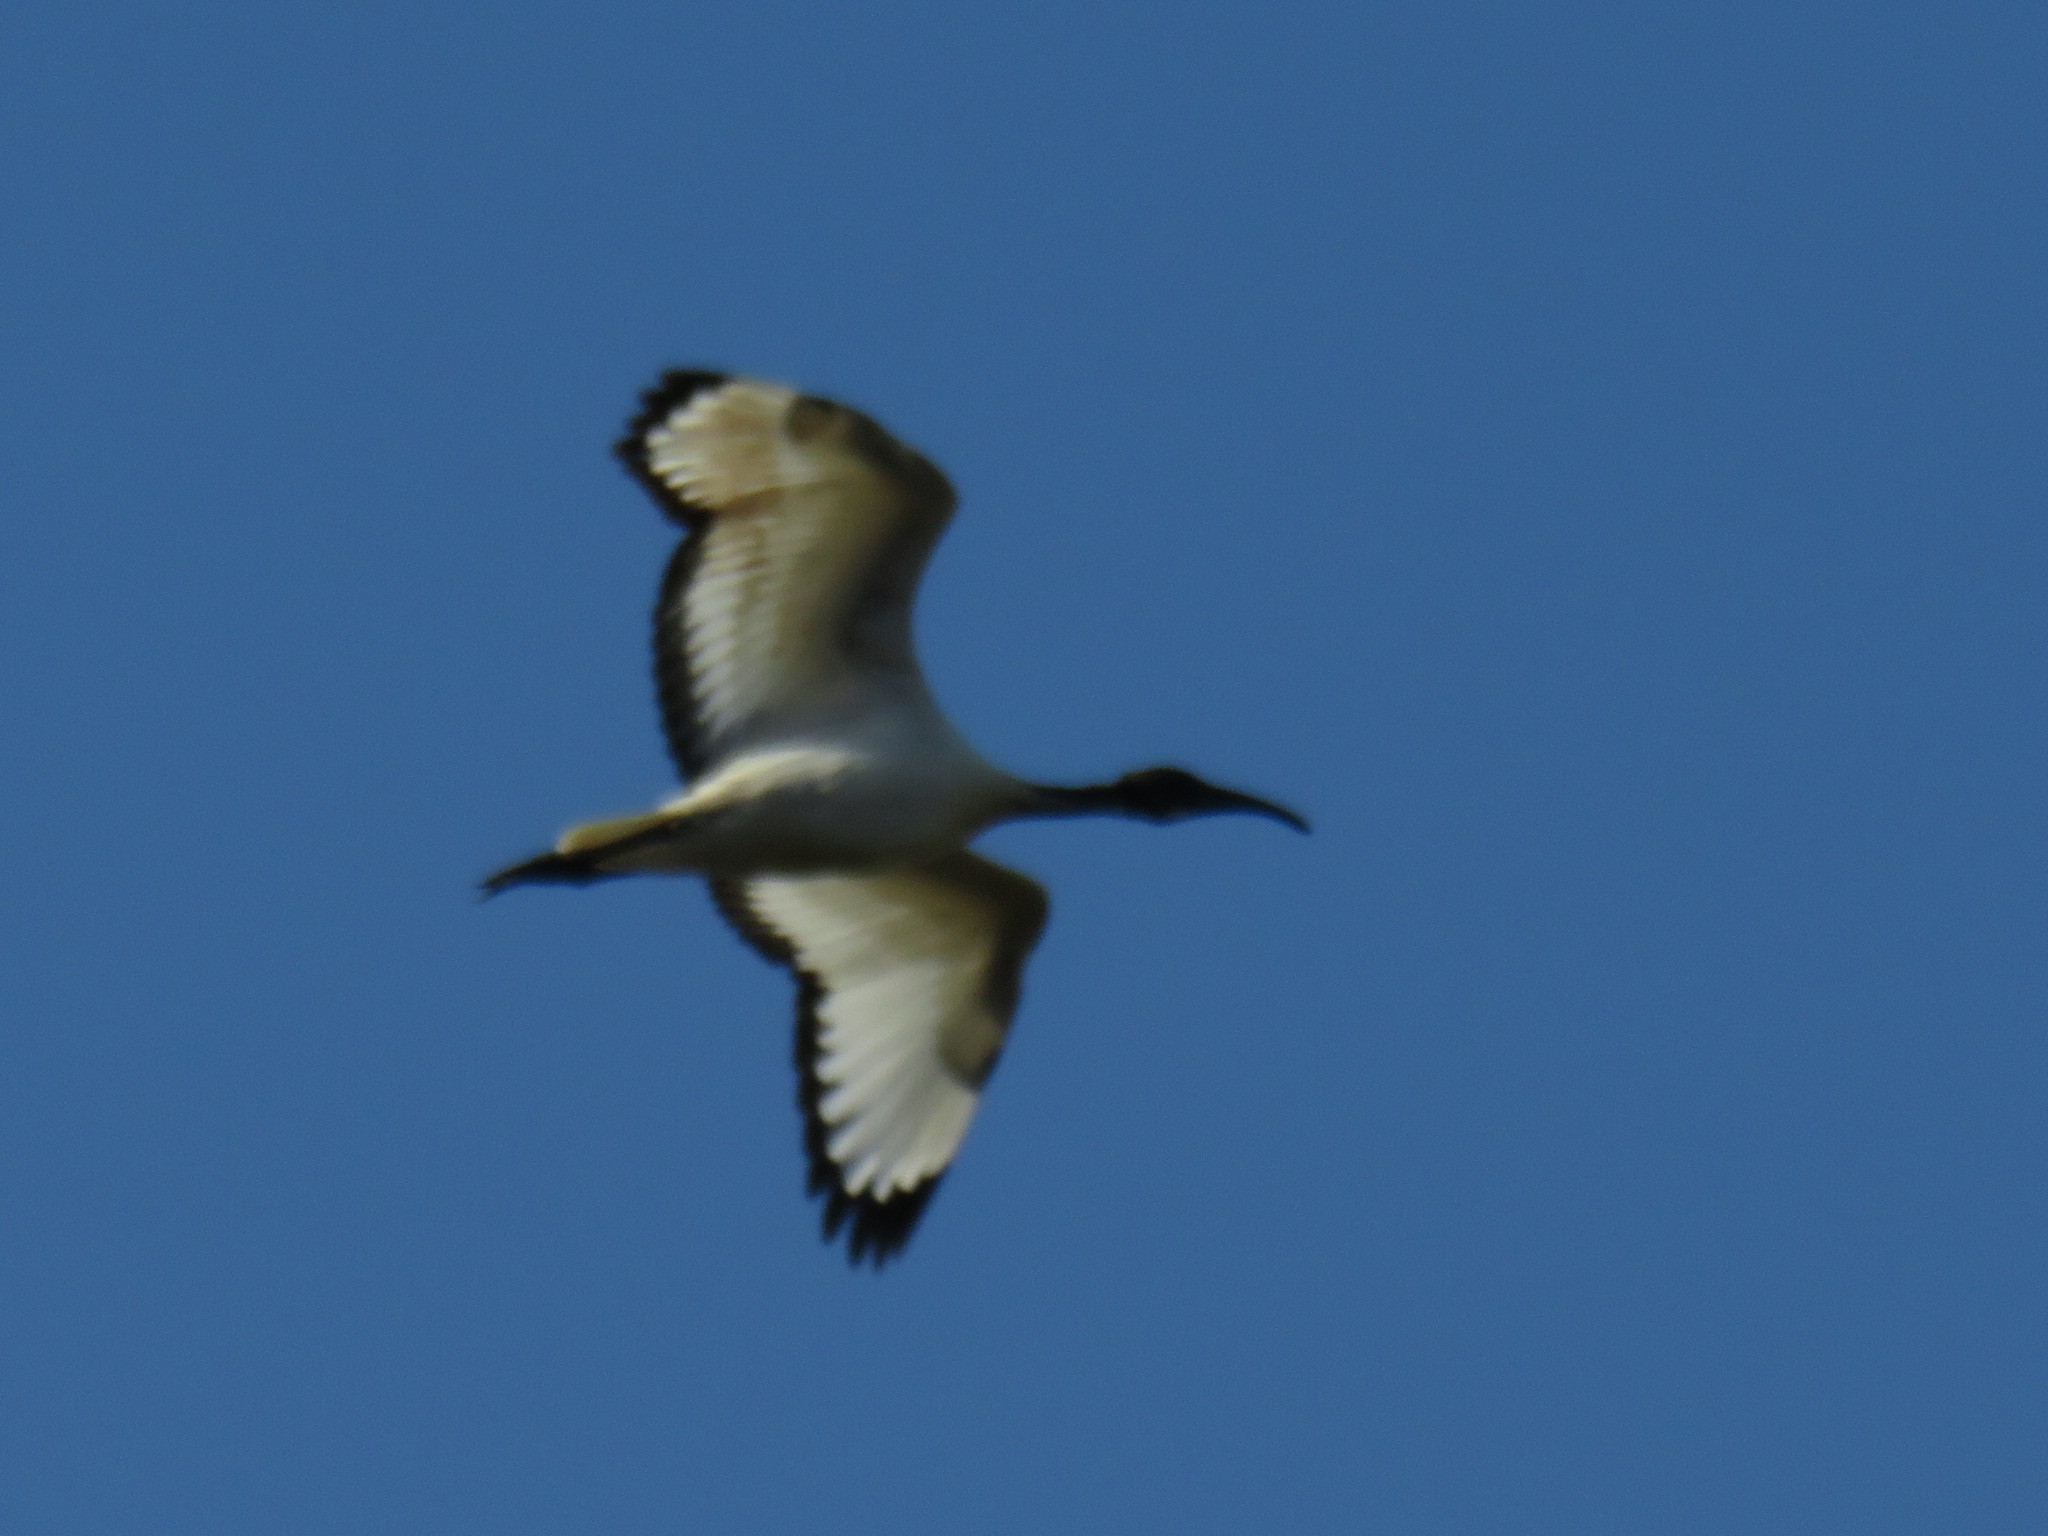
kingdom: Animalia
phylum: Chordata
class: Aves
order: Pelecaniformes
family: Threskiornithidae
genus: Threskiornis
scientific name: Threskiornis aethiopicus
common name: Sacred ibis
